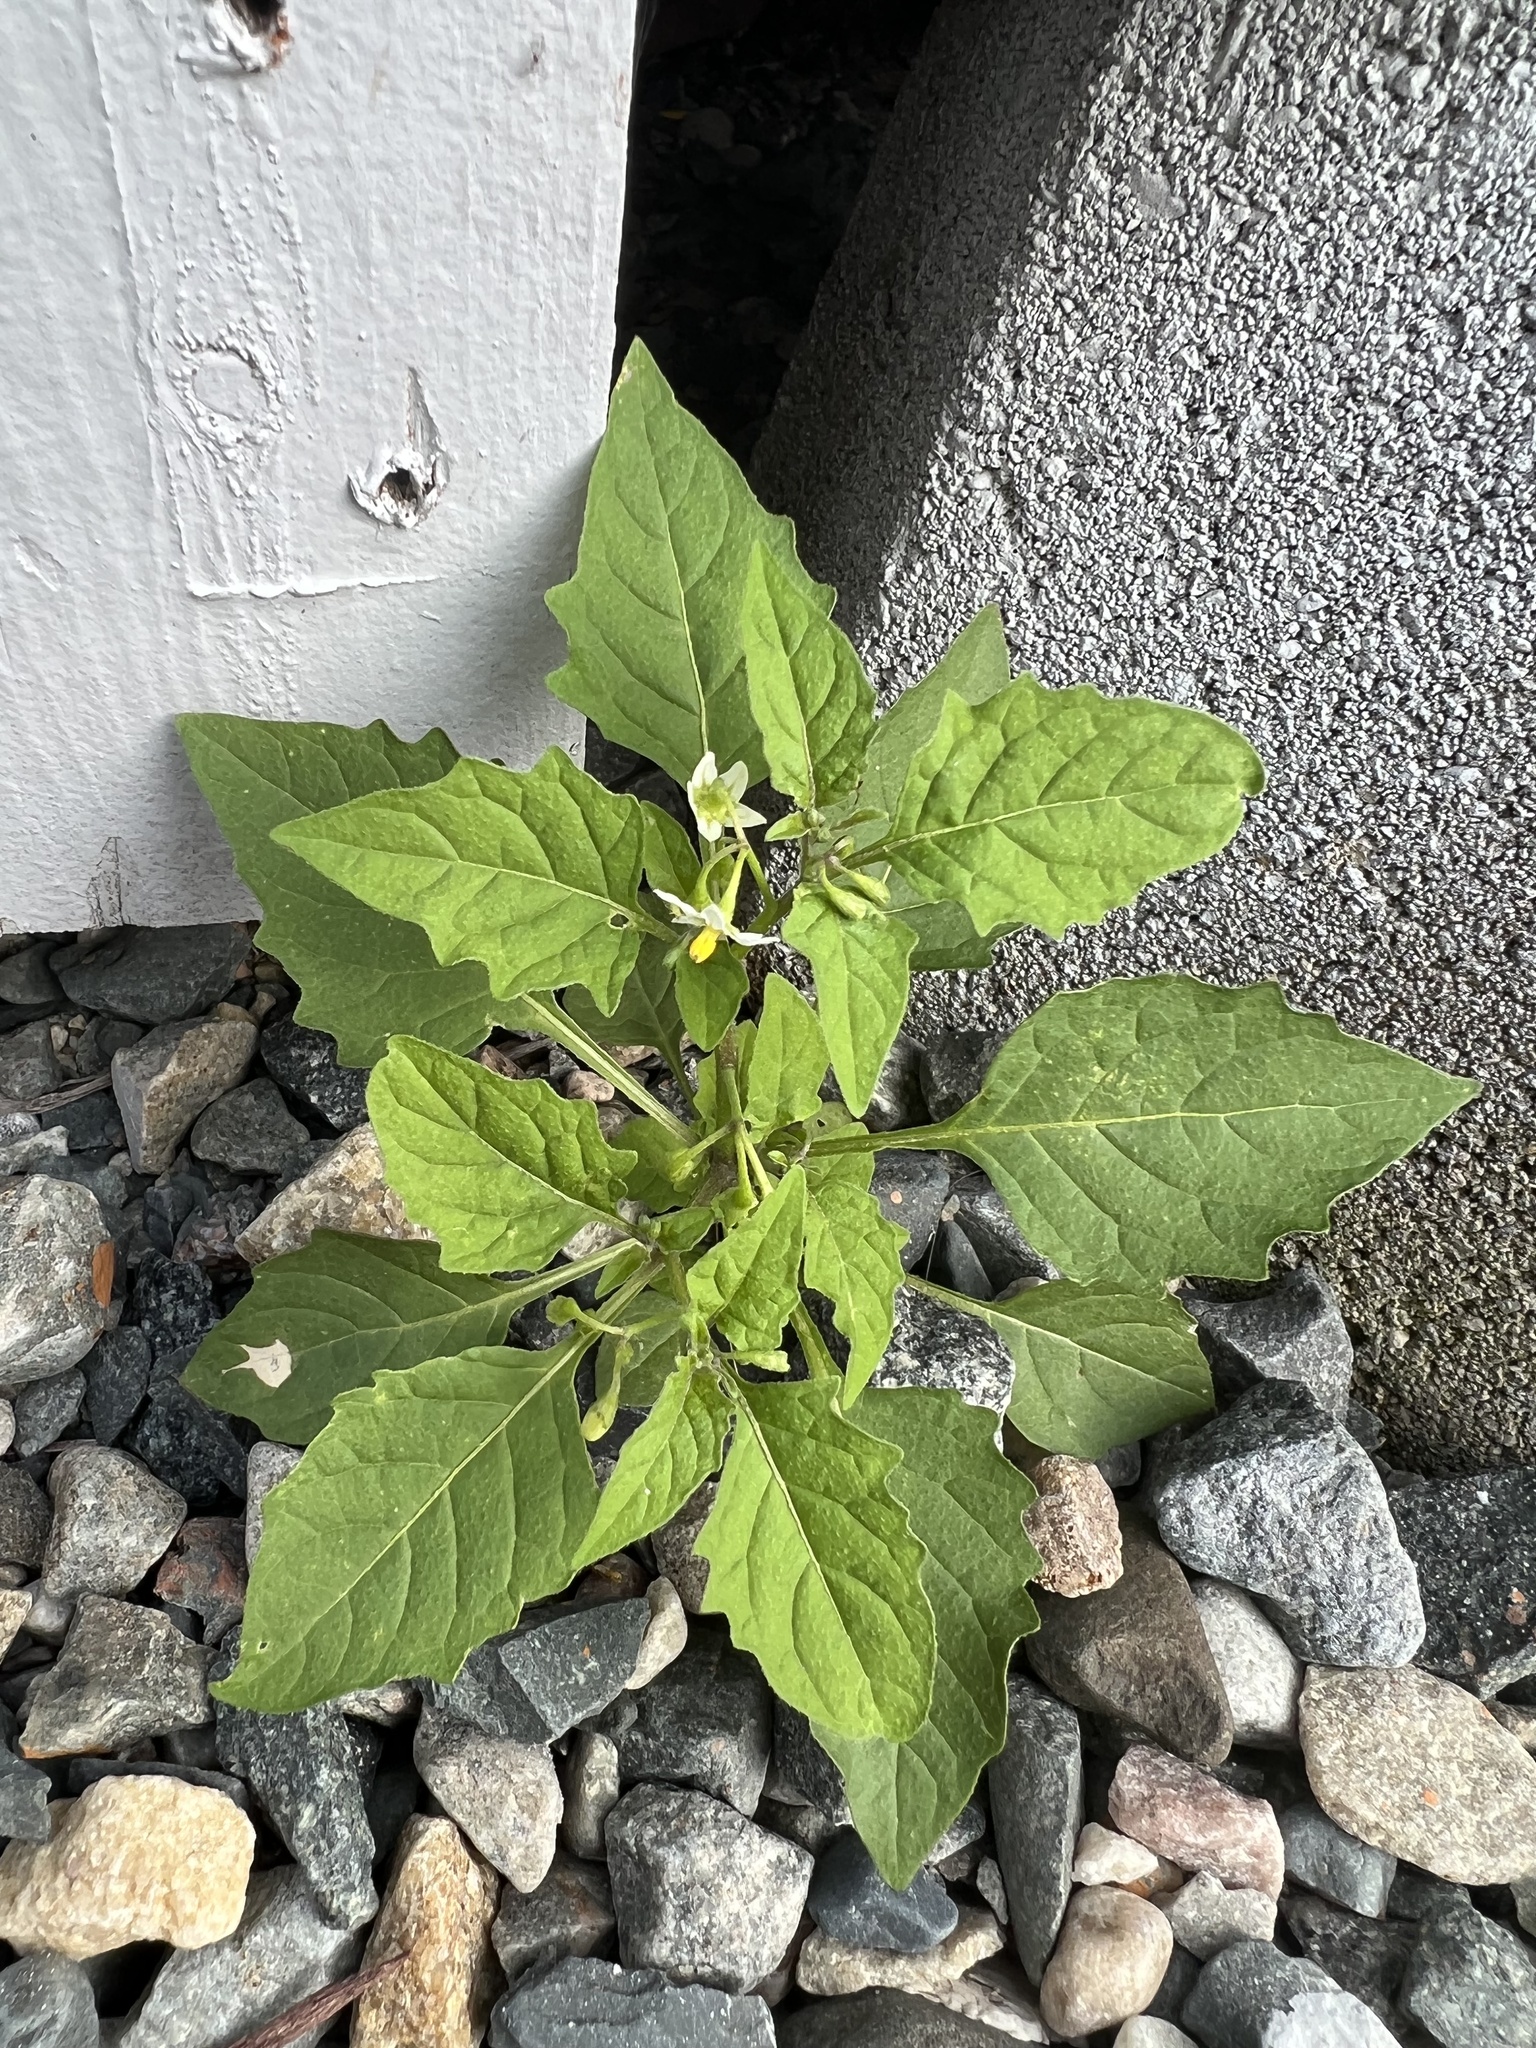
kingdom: Plantae
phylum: Tracheophyta
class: Magnoliopsida
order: Solanales
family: Solanaceae
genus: Solanum
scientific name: Solanum emulans
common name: Eastern black nightshade
